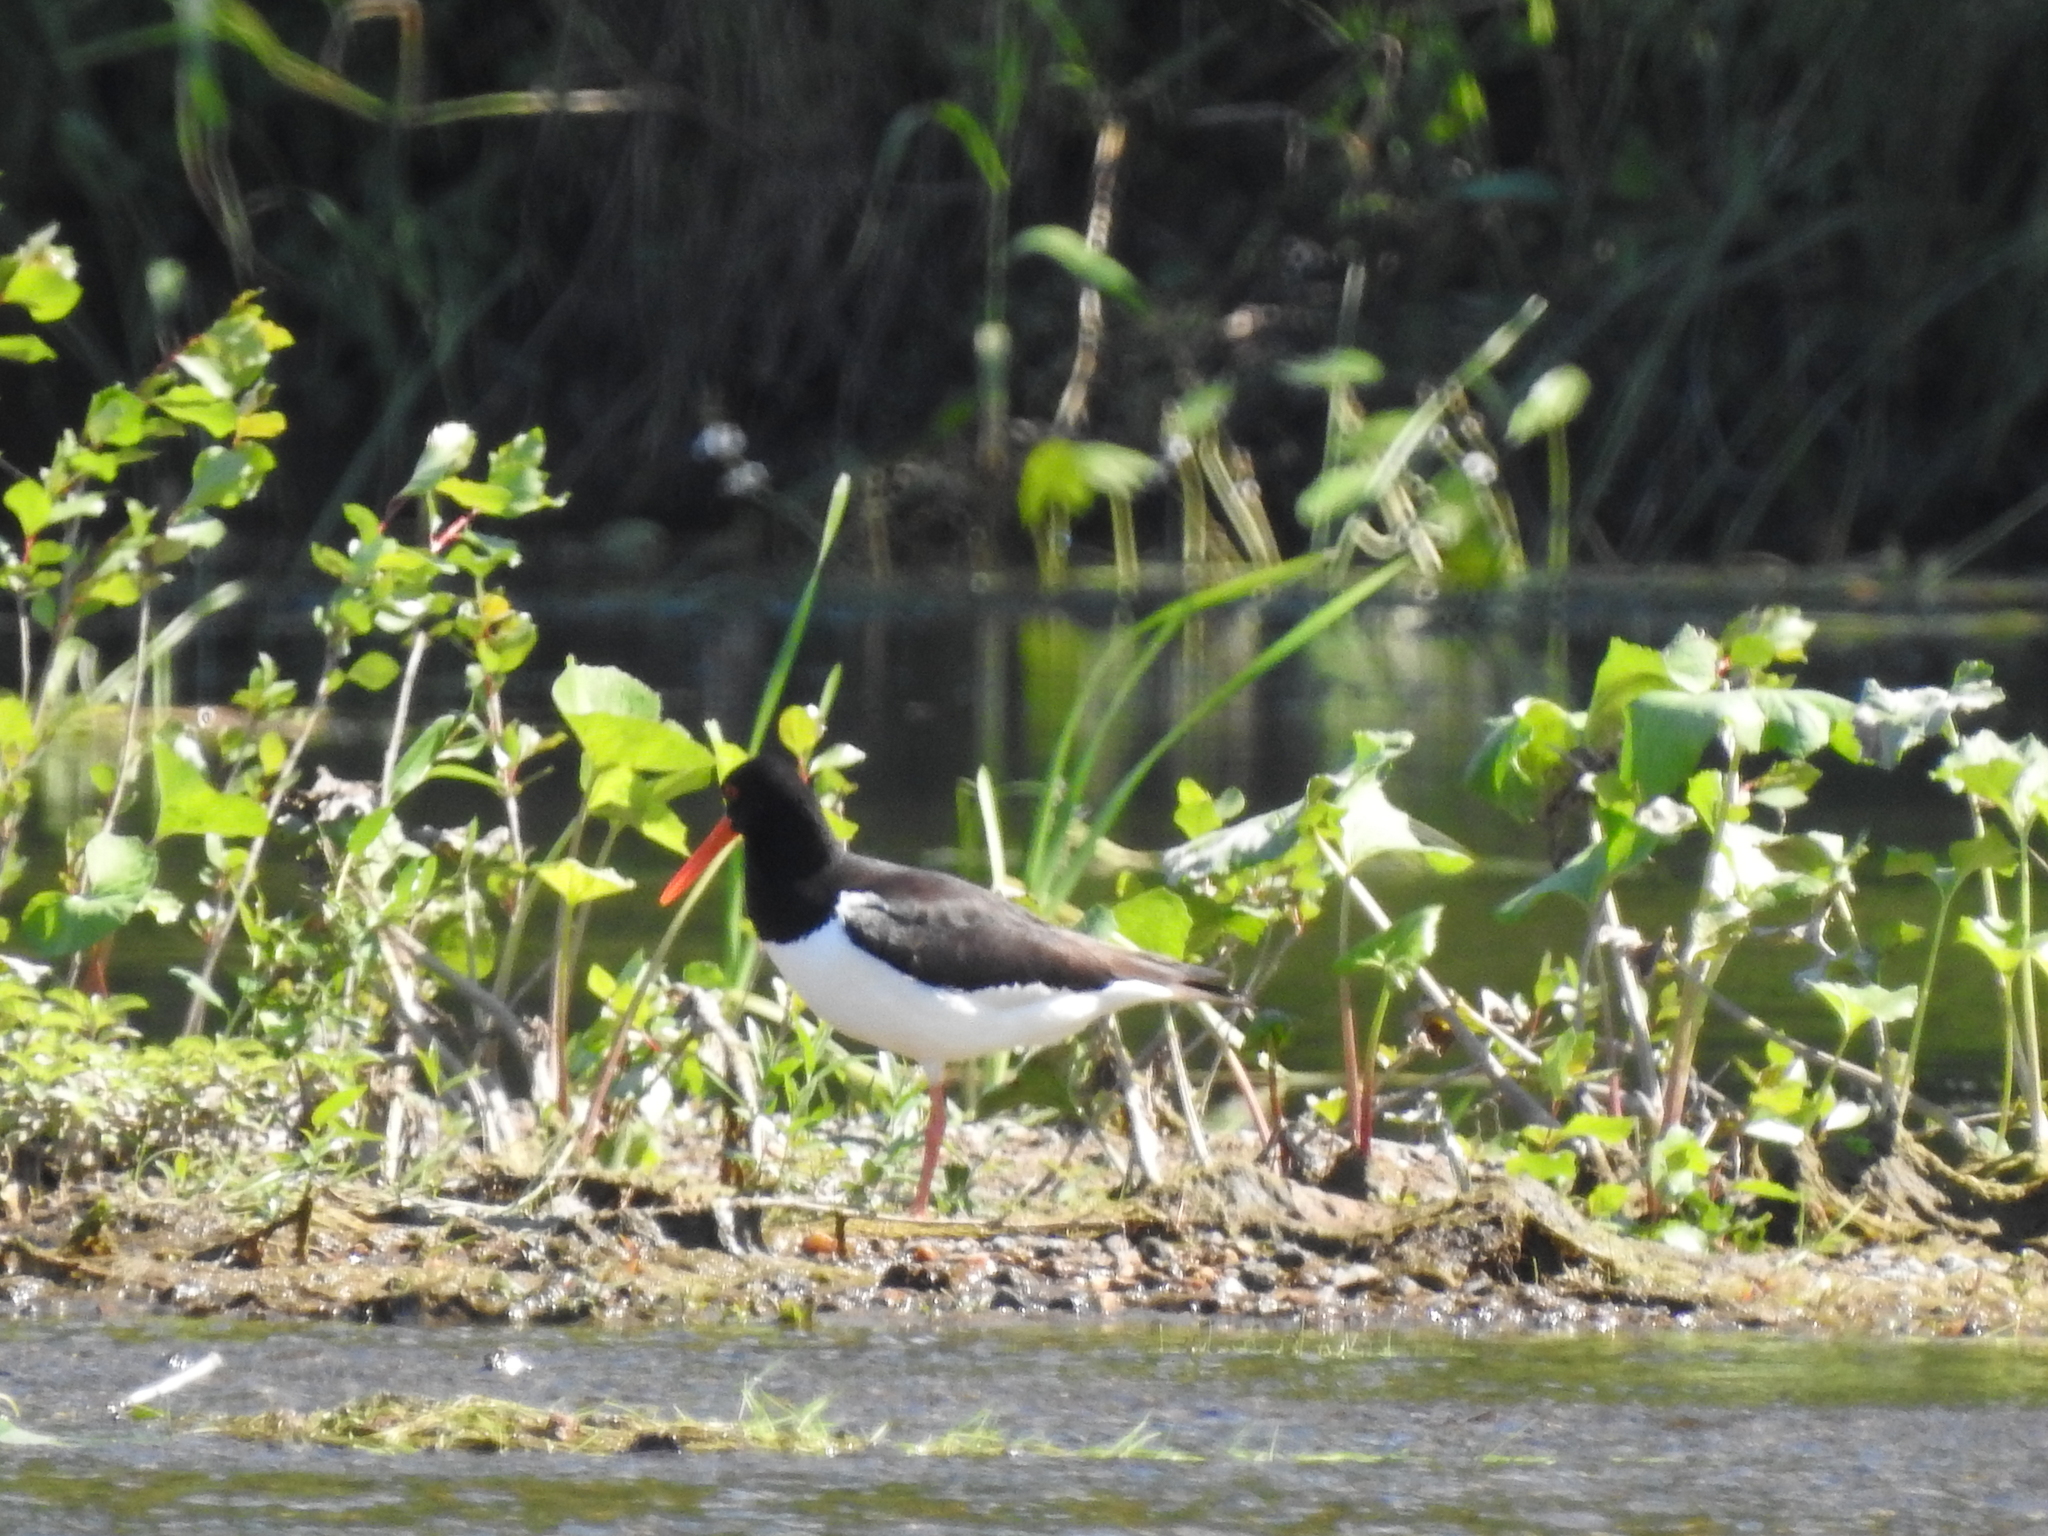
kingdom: Animalia
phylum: Chordata
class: Aves
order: Charadriiformes
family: Haematopodidae
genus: Haematopus
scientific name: Haematopus ostralegus
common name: Eurasian oystercatcher
